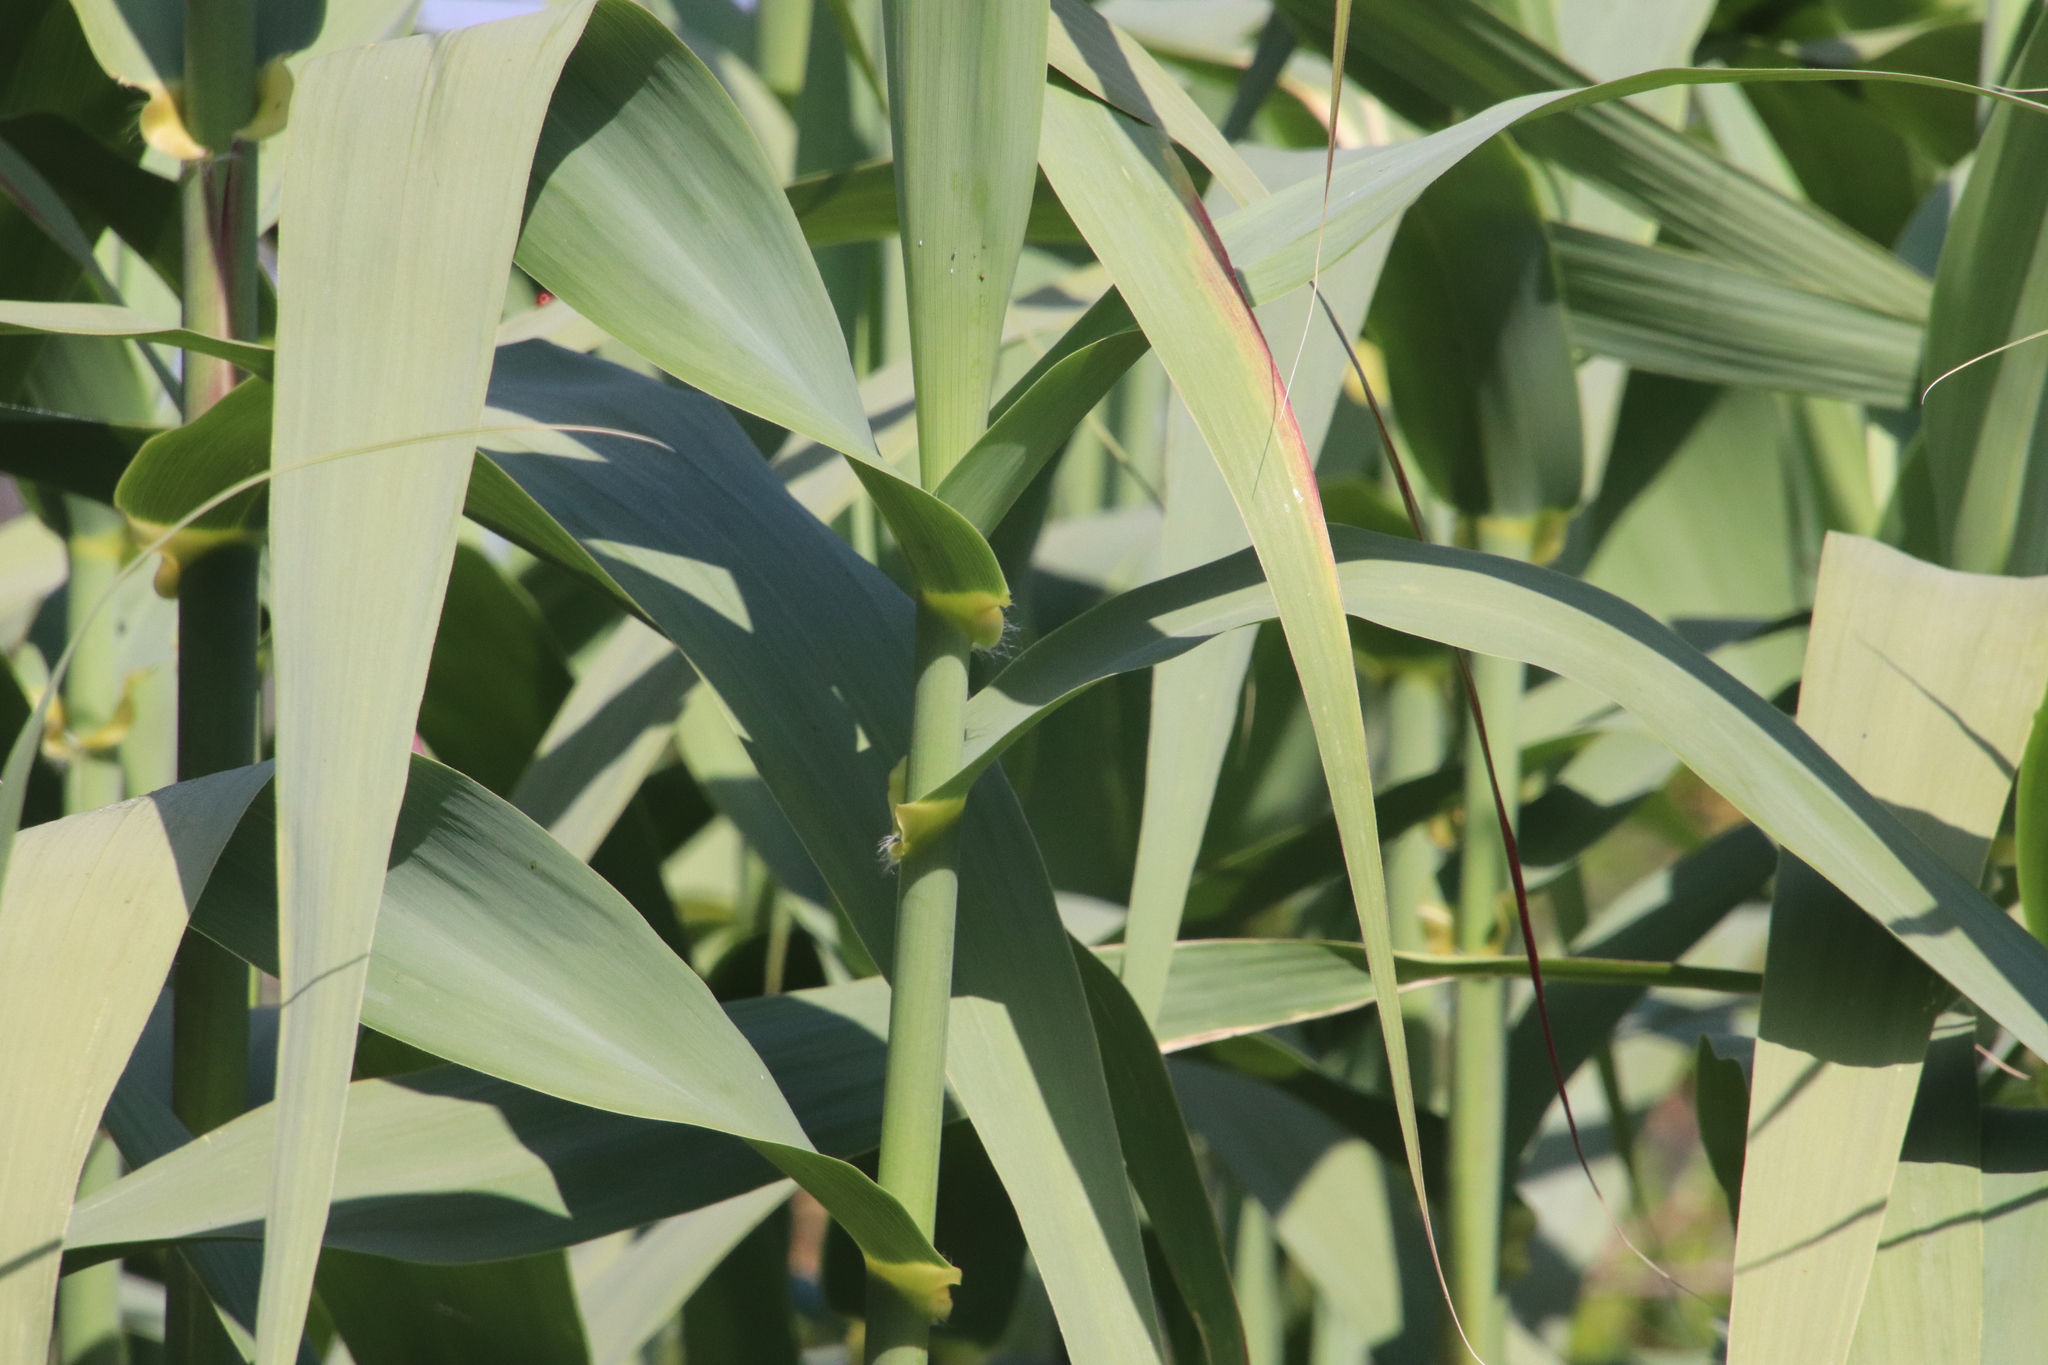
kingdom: Plantae
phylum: Tracheophyta
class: Liliopsida
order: Poales
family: Poaceae
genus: Arundo
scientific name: Arundo donax
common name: Giant reed
